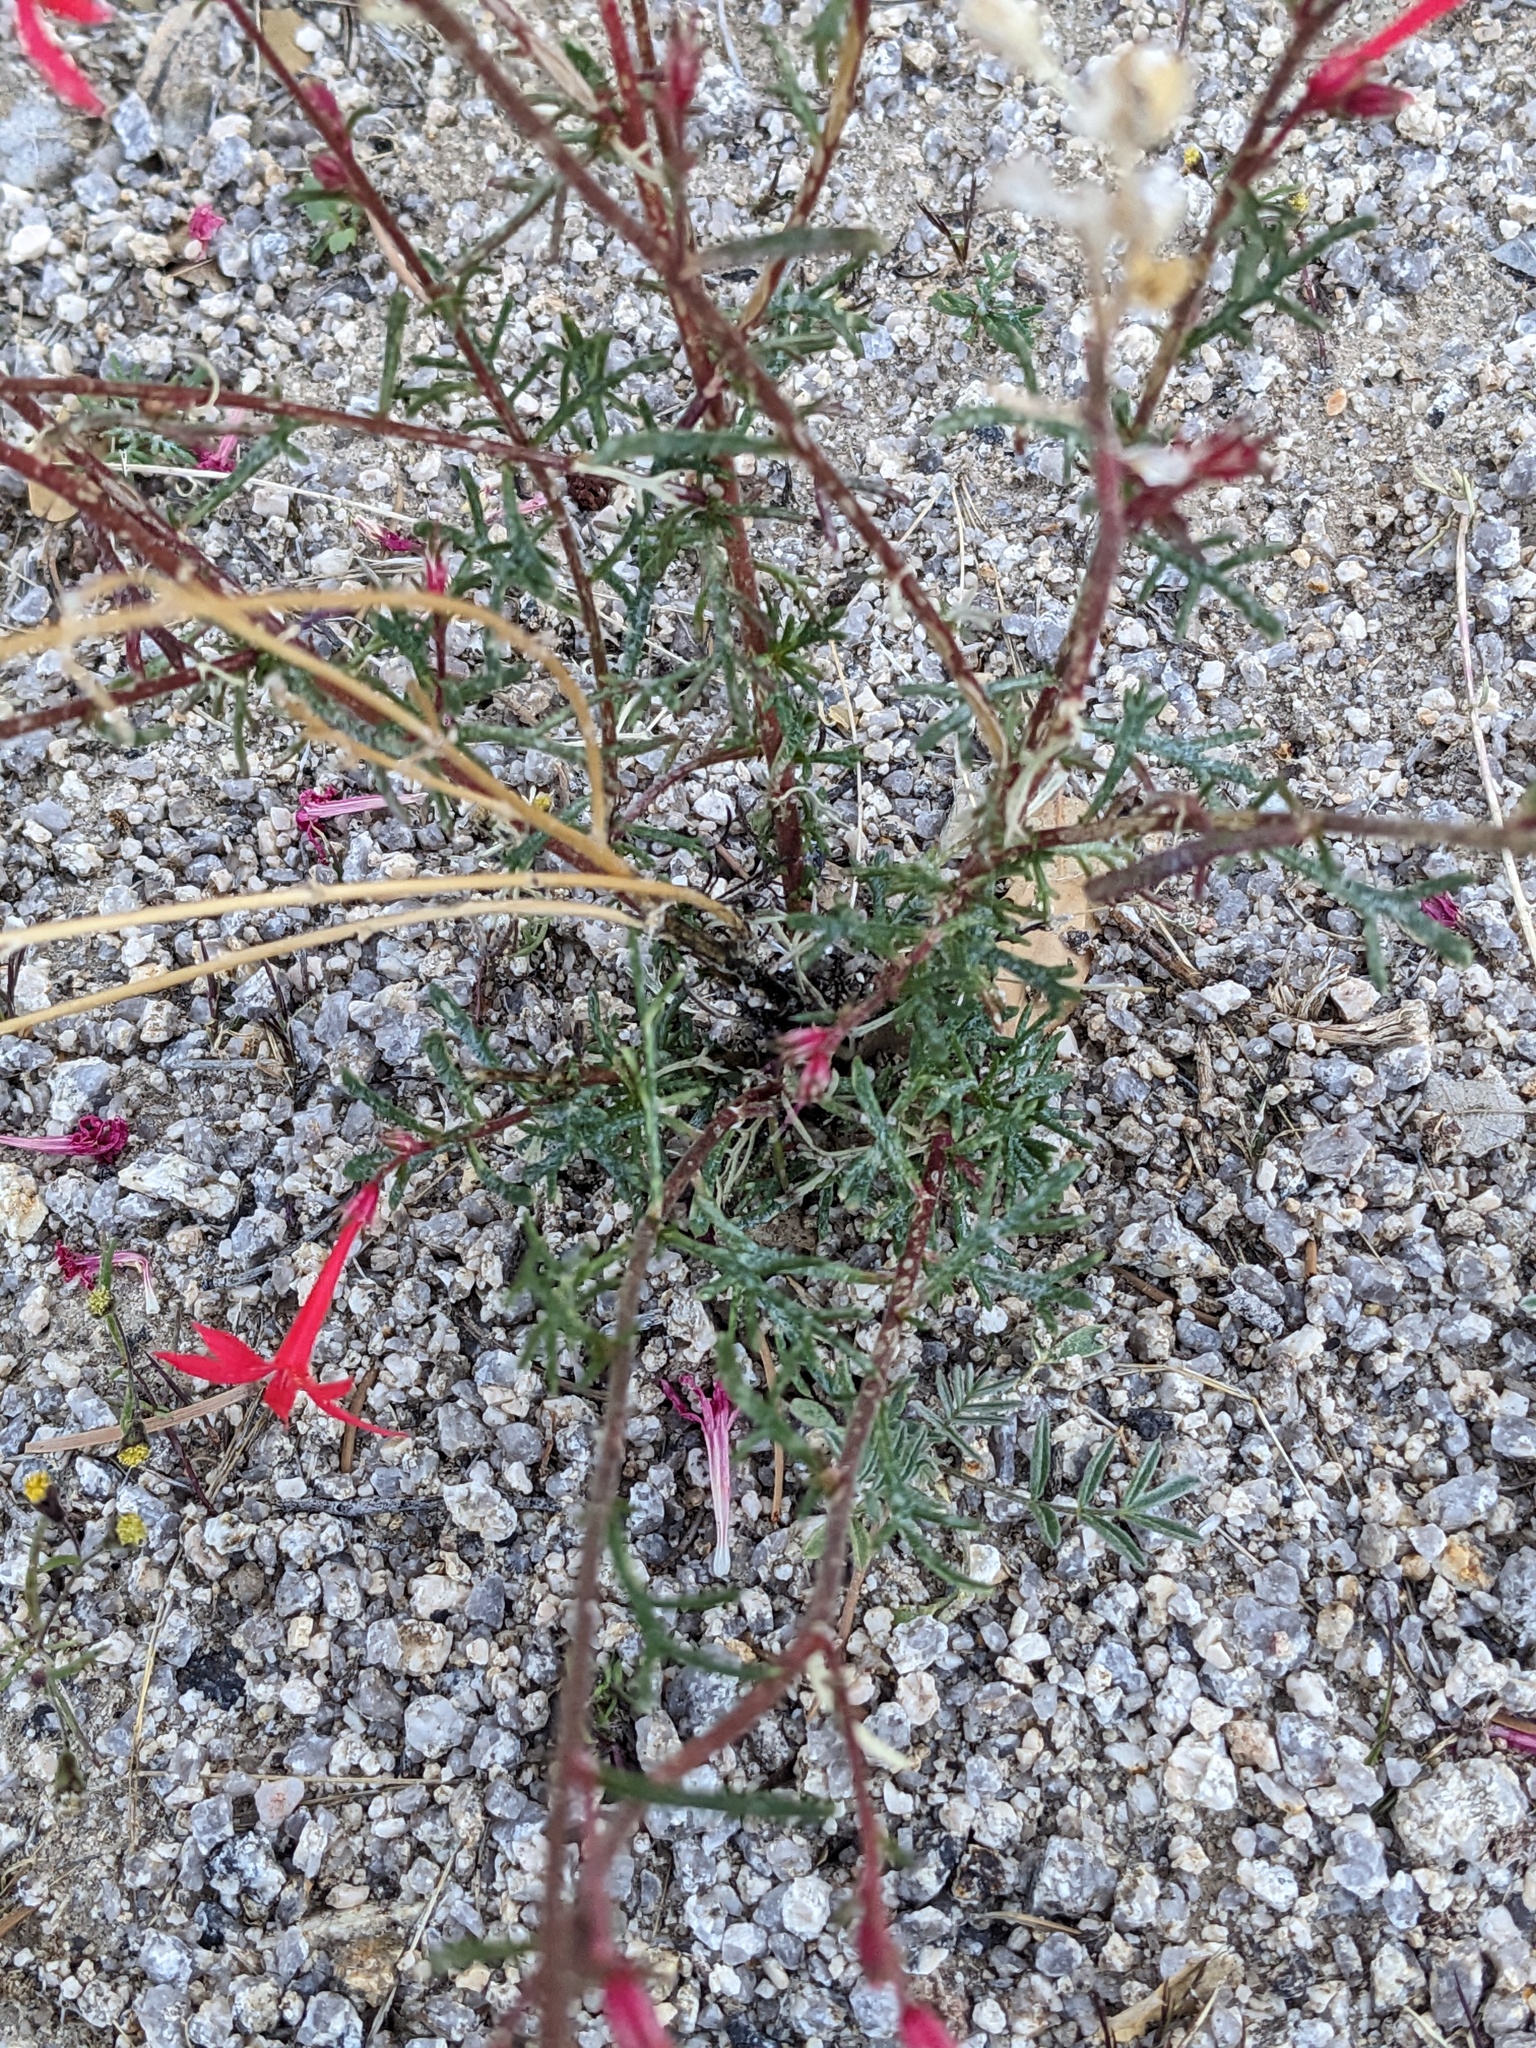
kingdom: Plantae
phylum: Tracheophyta
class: Magnoliopsida
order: Ericales
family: Polemoniaceae
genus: Ipomopsis
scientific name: Ipomopsis arizonica
